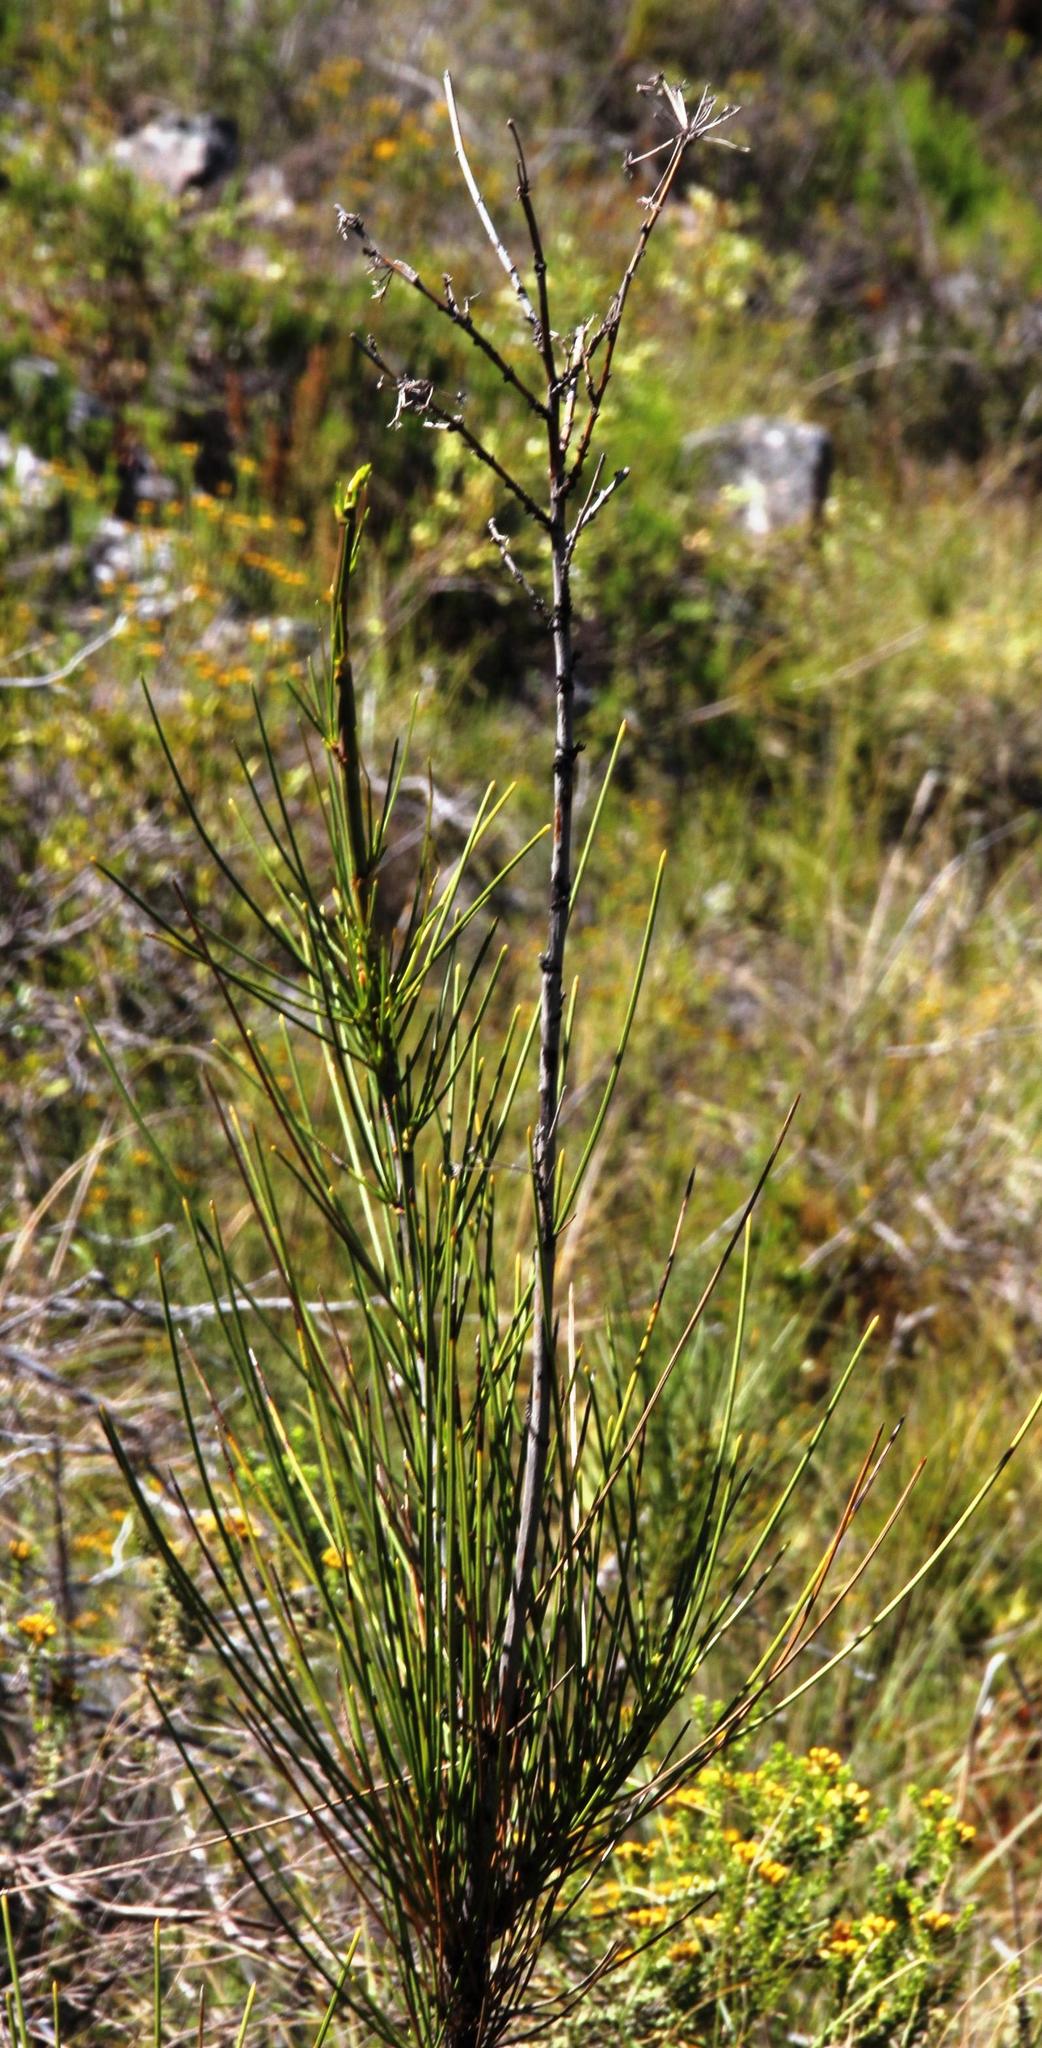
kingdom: Plantae
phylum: Tracheophyta
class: Magnoliopsida
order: Apiales
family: Apiaceae
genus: Anginon
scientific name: Anginon difforme
